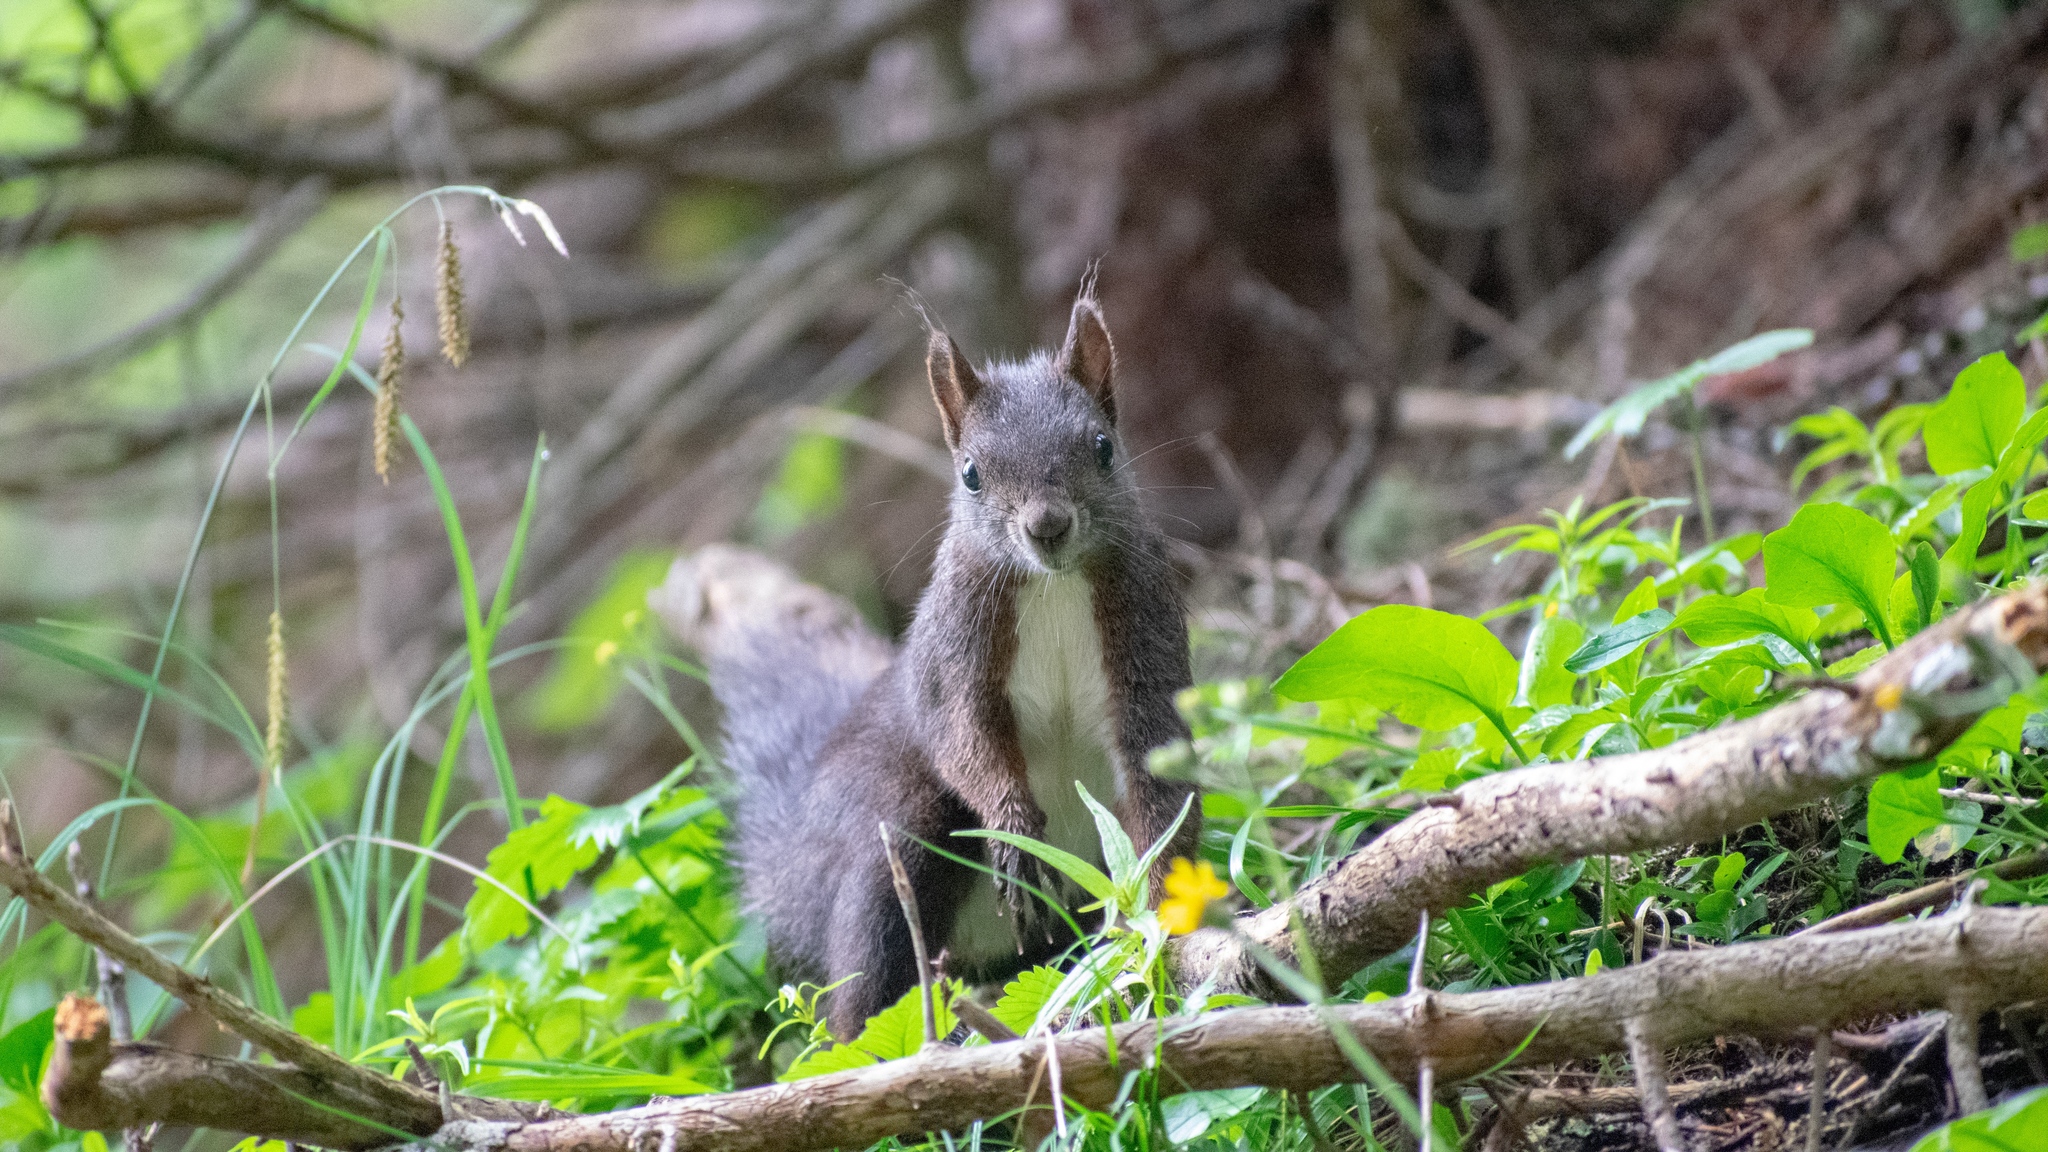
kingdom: Animalia
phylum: Chordata
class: Mammalia
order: Rodentia
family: Sciuridae
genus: Sciurus
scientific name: Sciurus vulgaris
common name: Eurasian red squirrel
